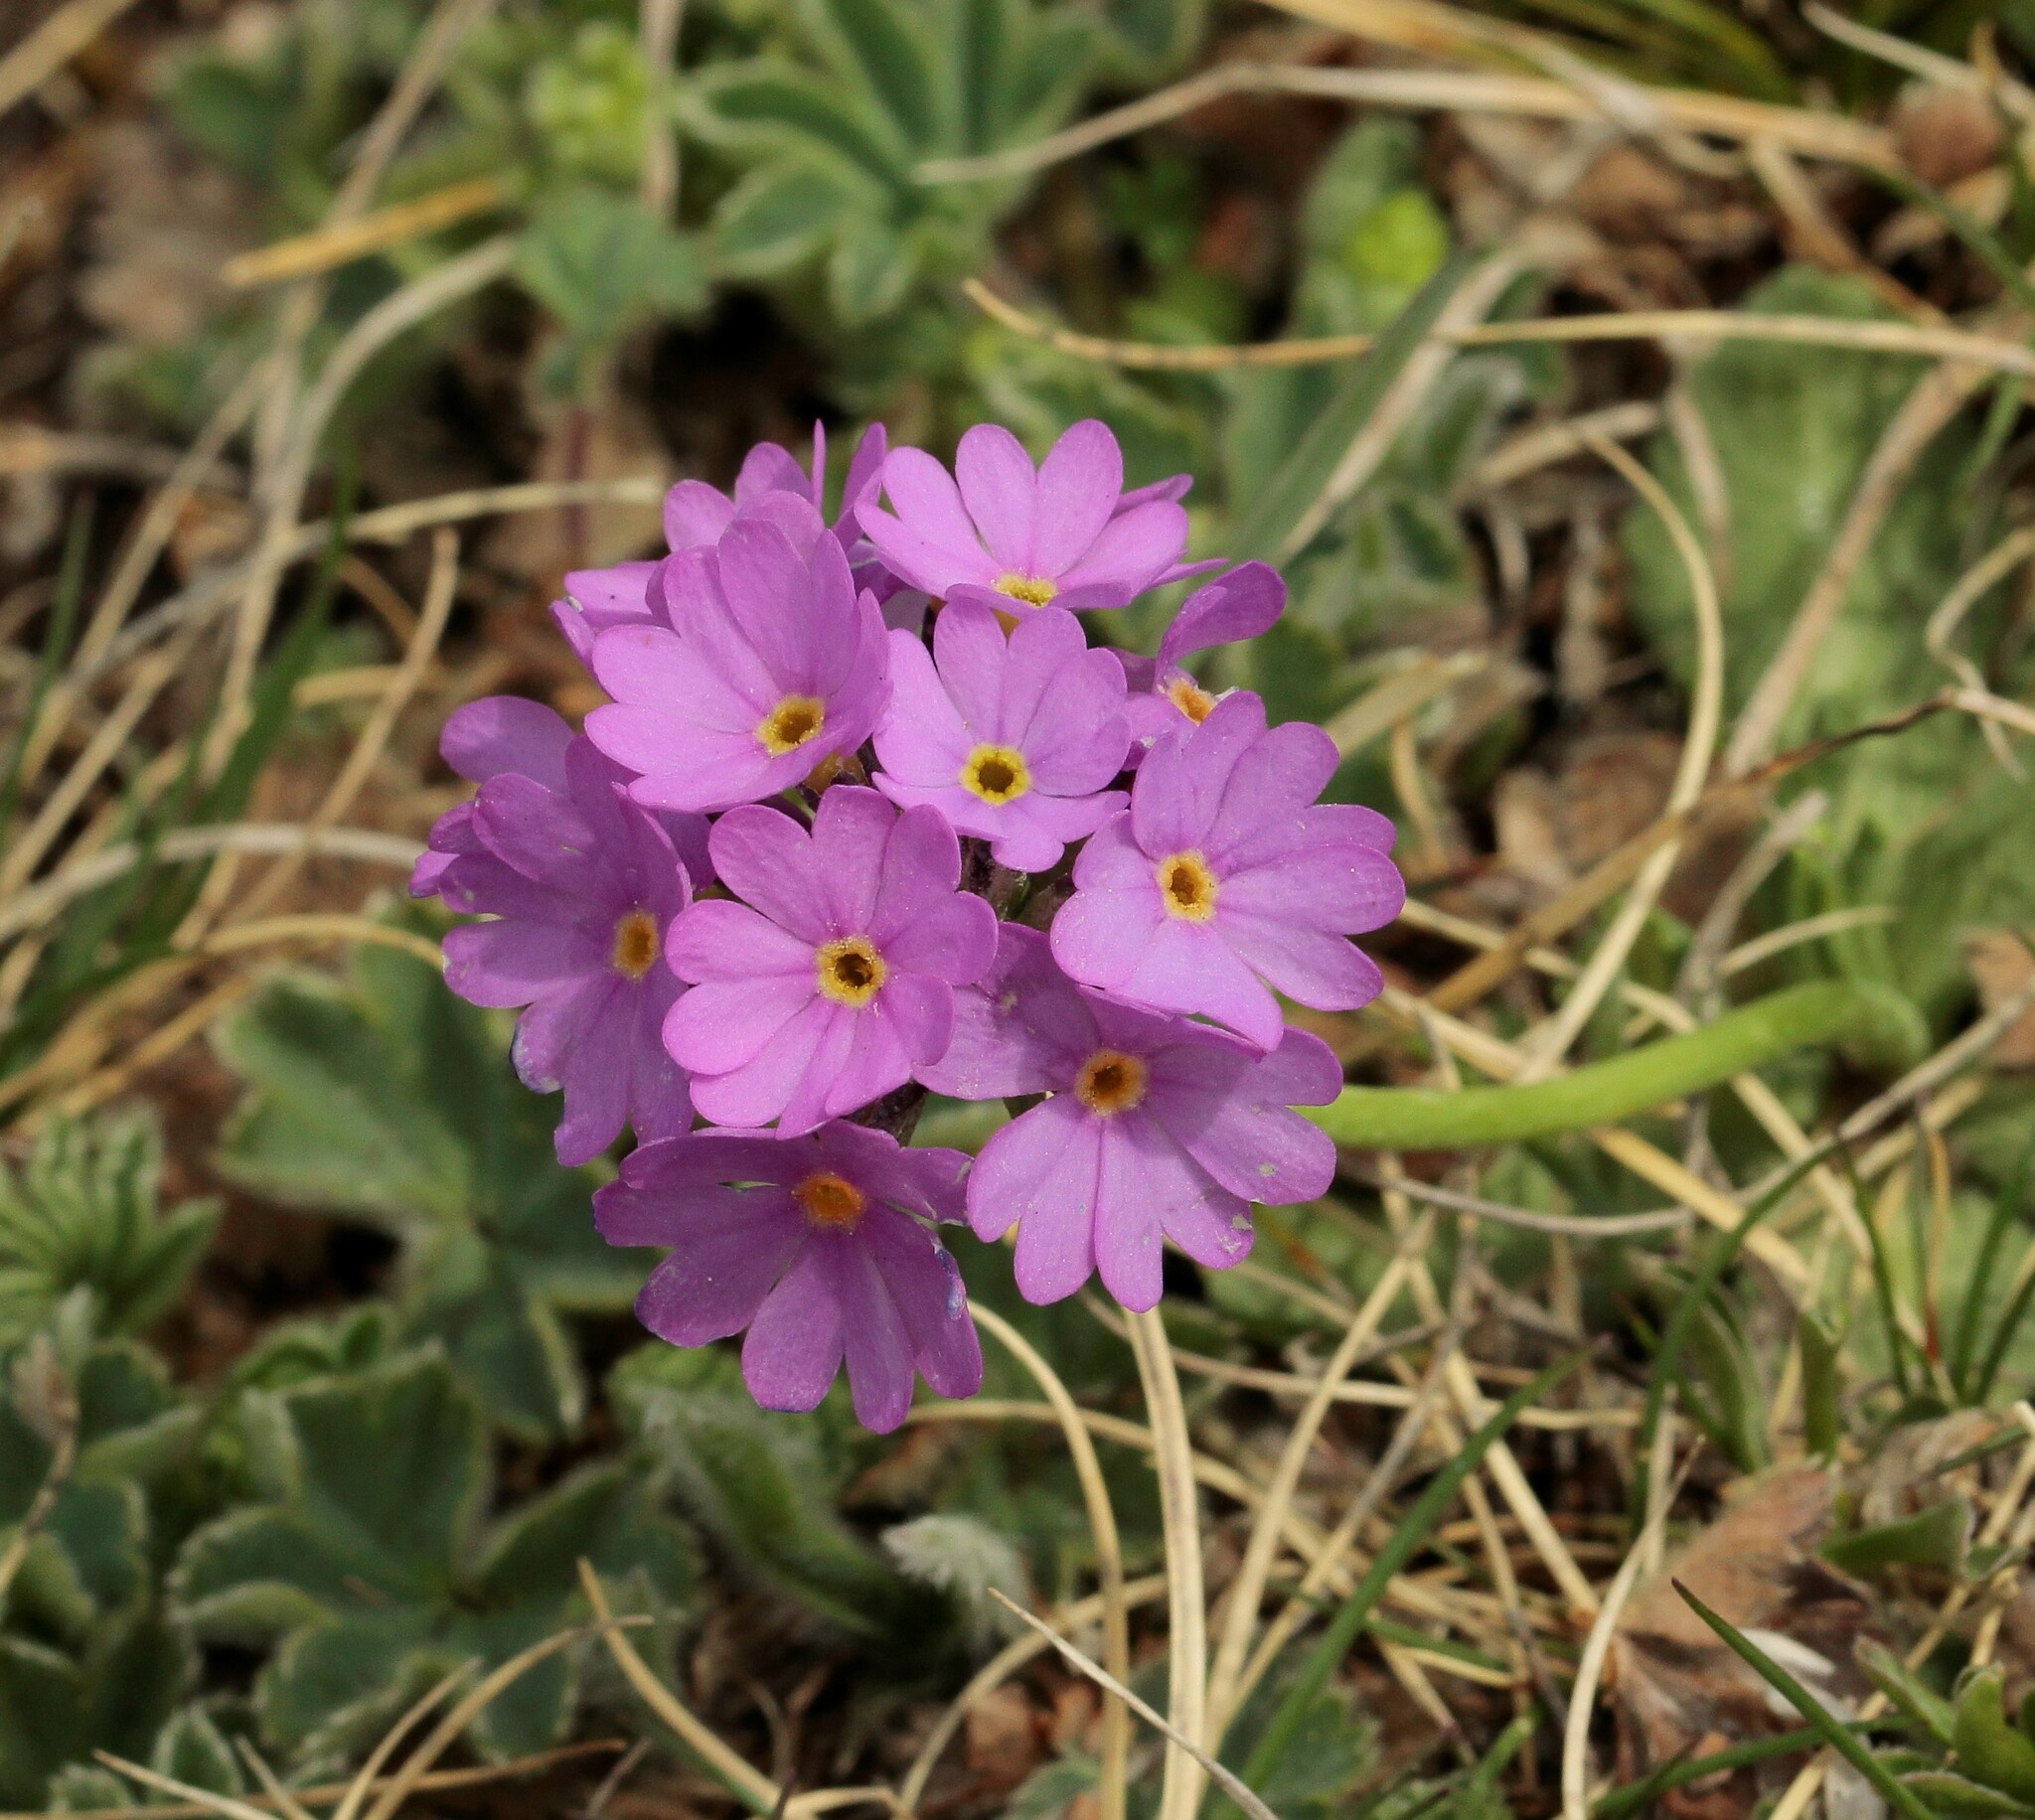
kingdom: Plantae
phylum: Tracheophyta
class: Magnoliopsida
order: Ericales
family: Primulaceae
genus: Primula
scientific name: Primula algida
